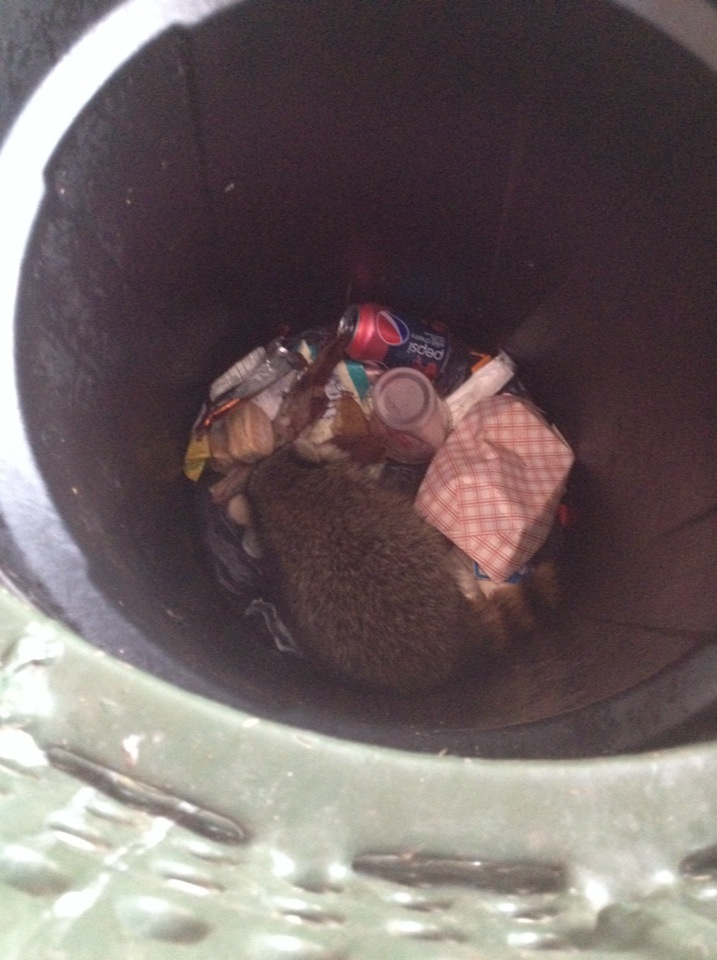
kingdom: Animalia
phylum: Chordata
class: Mammalia
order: Carnivora
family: Procyonidae
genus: Procyon
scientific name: Procyon lotor
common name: Raccoon
